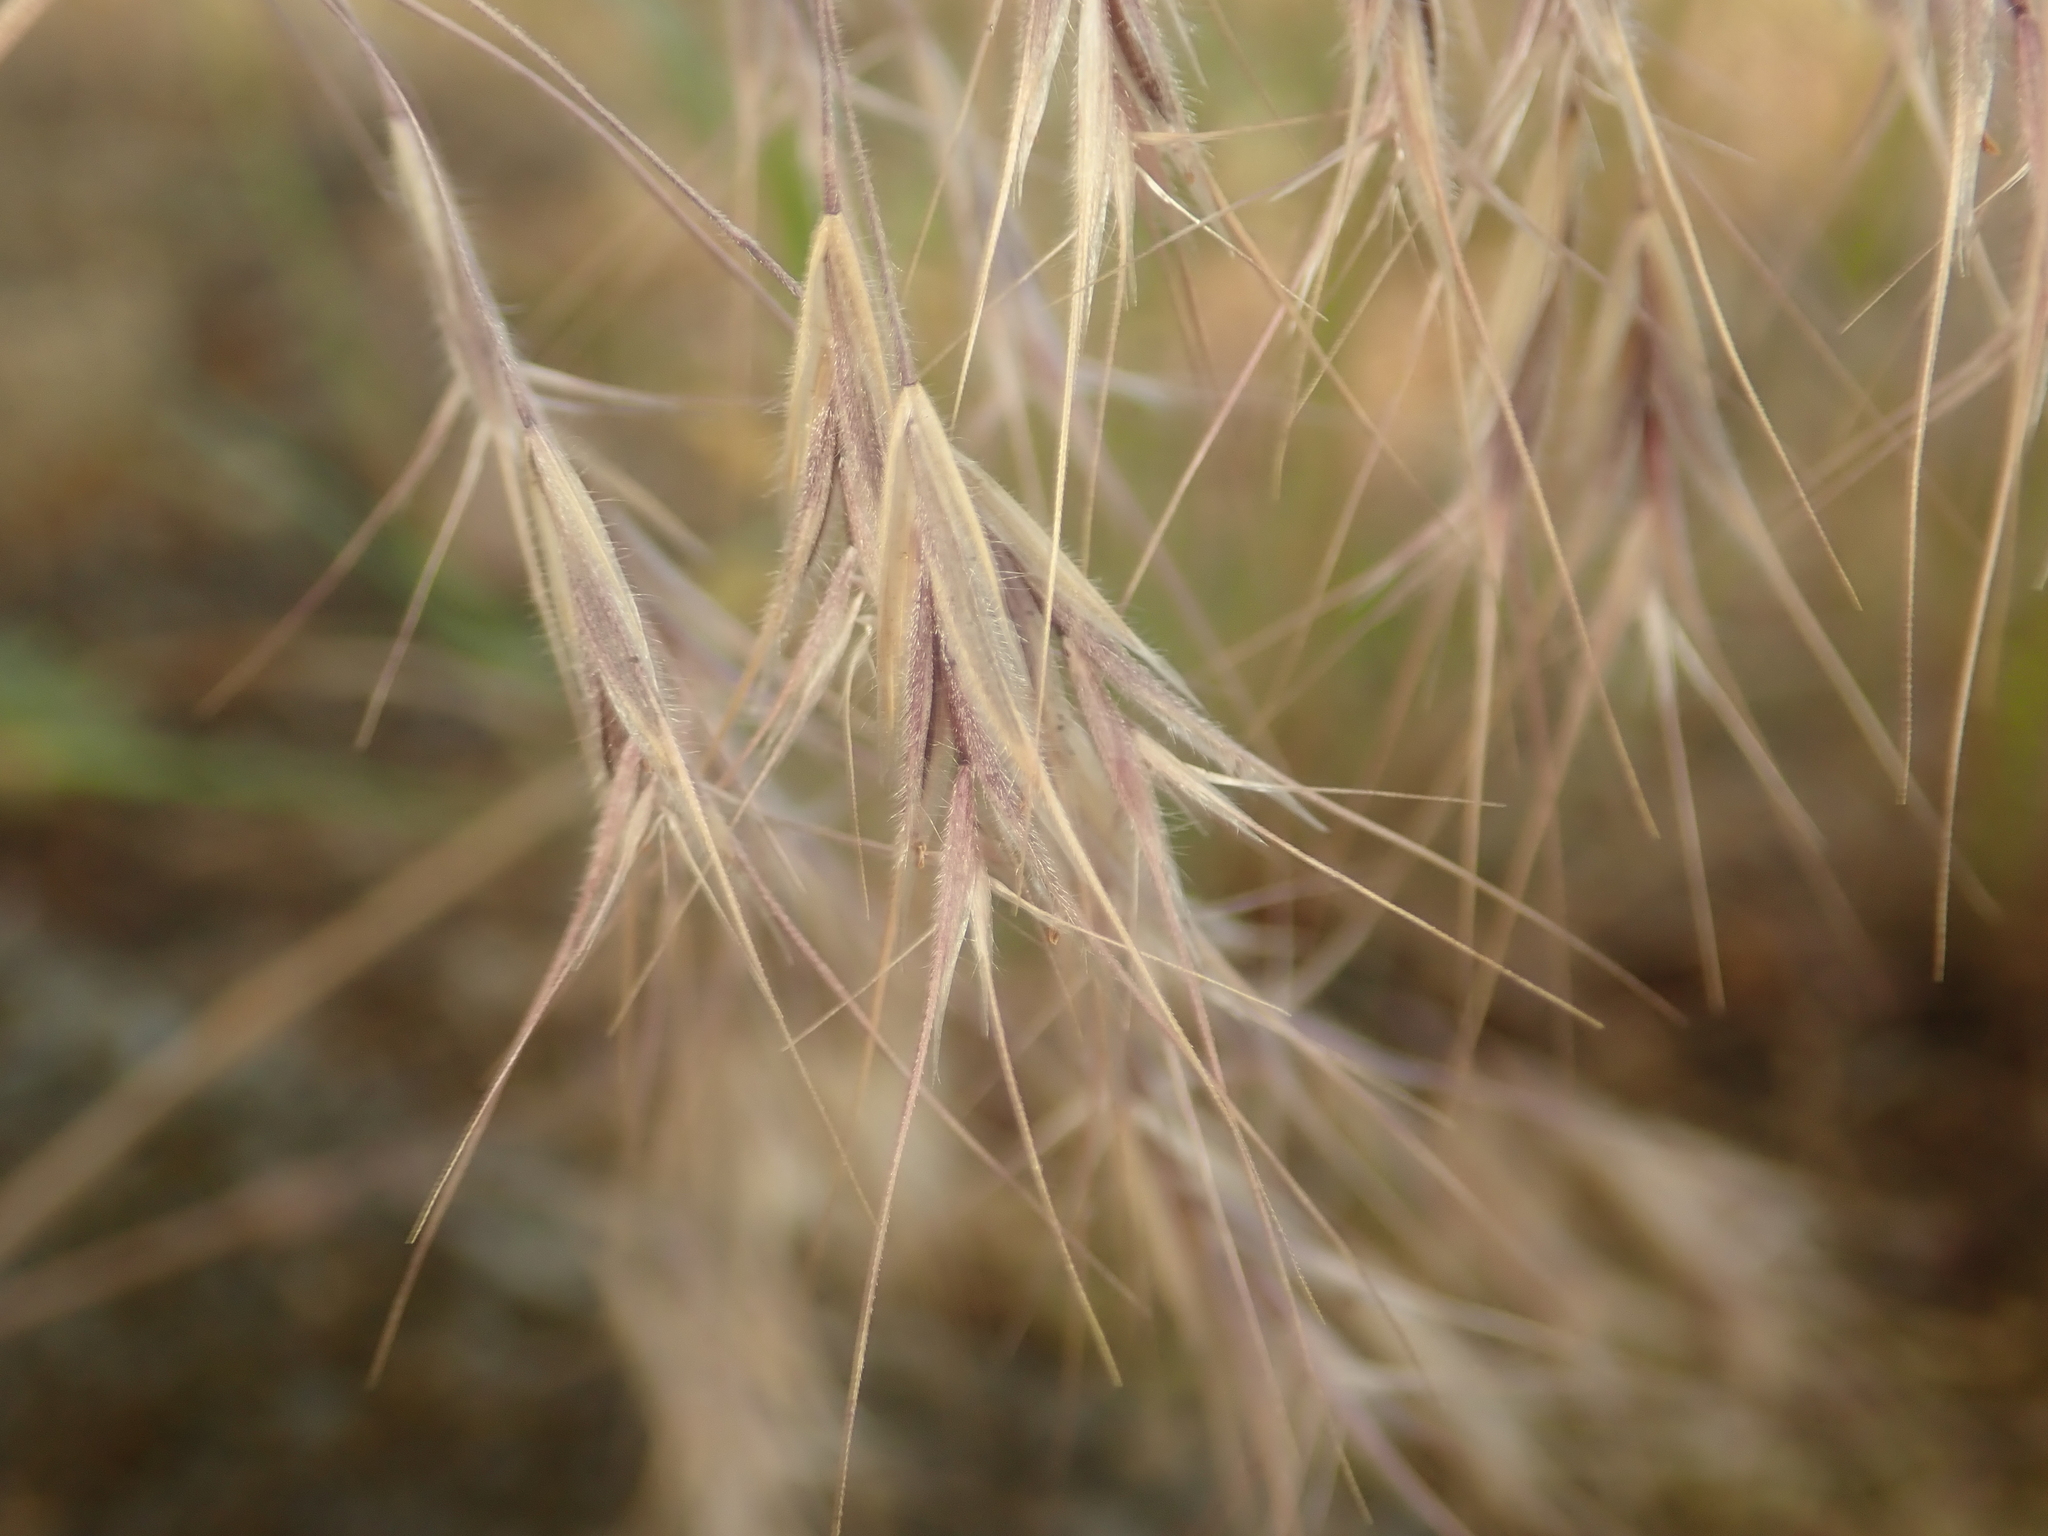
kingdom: Plantae
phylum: Tracheophyta
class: Liliopsida
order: Poales
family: Poaceae
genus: Bromus
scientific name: Bromus tectorum
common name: Cheatgrass
